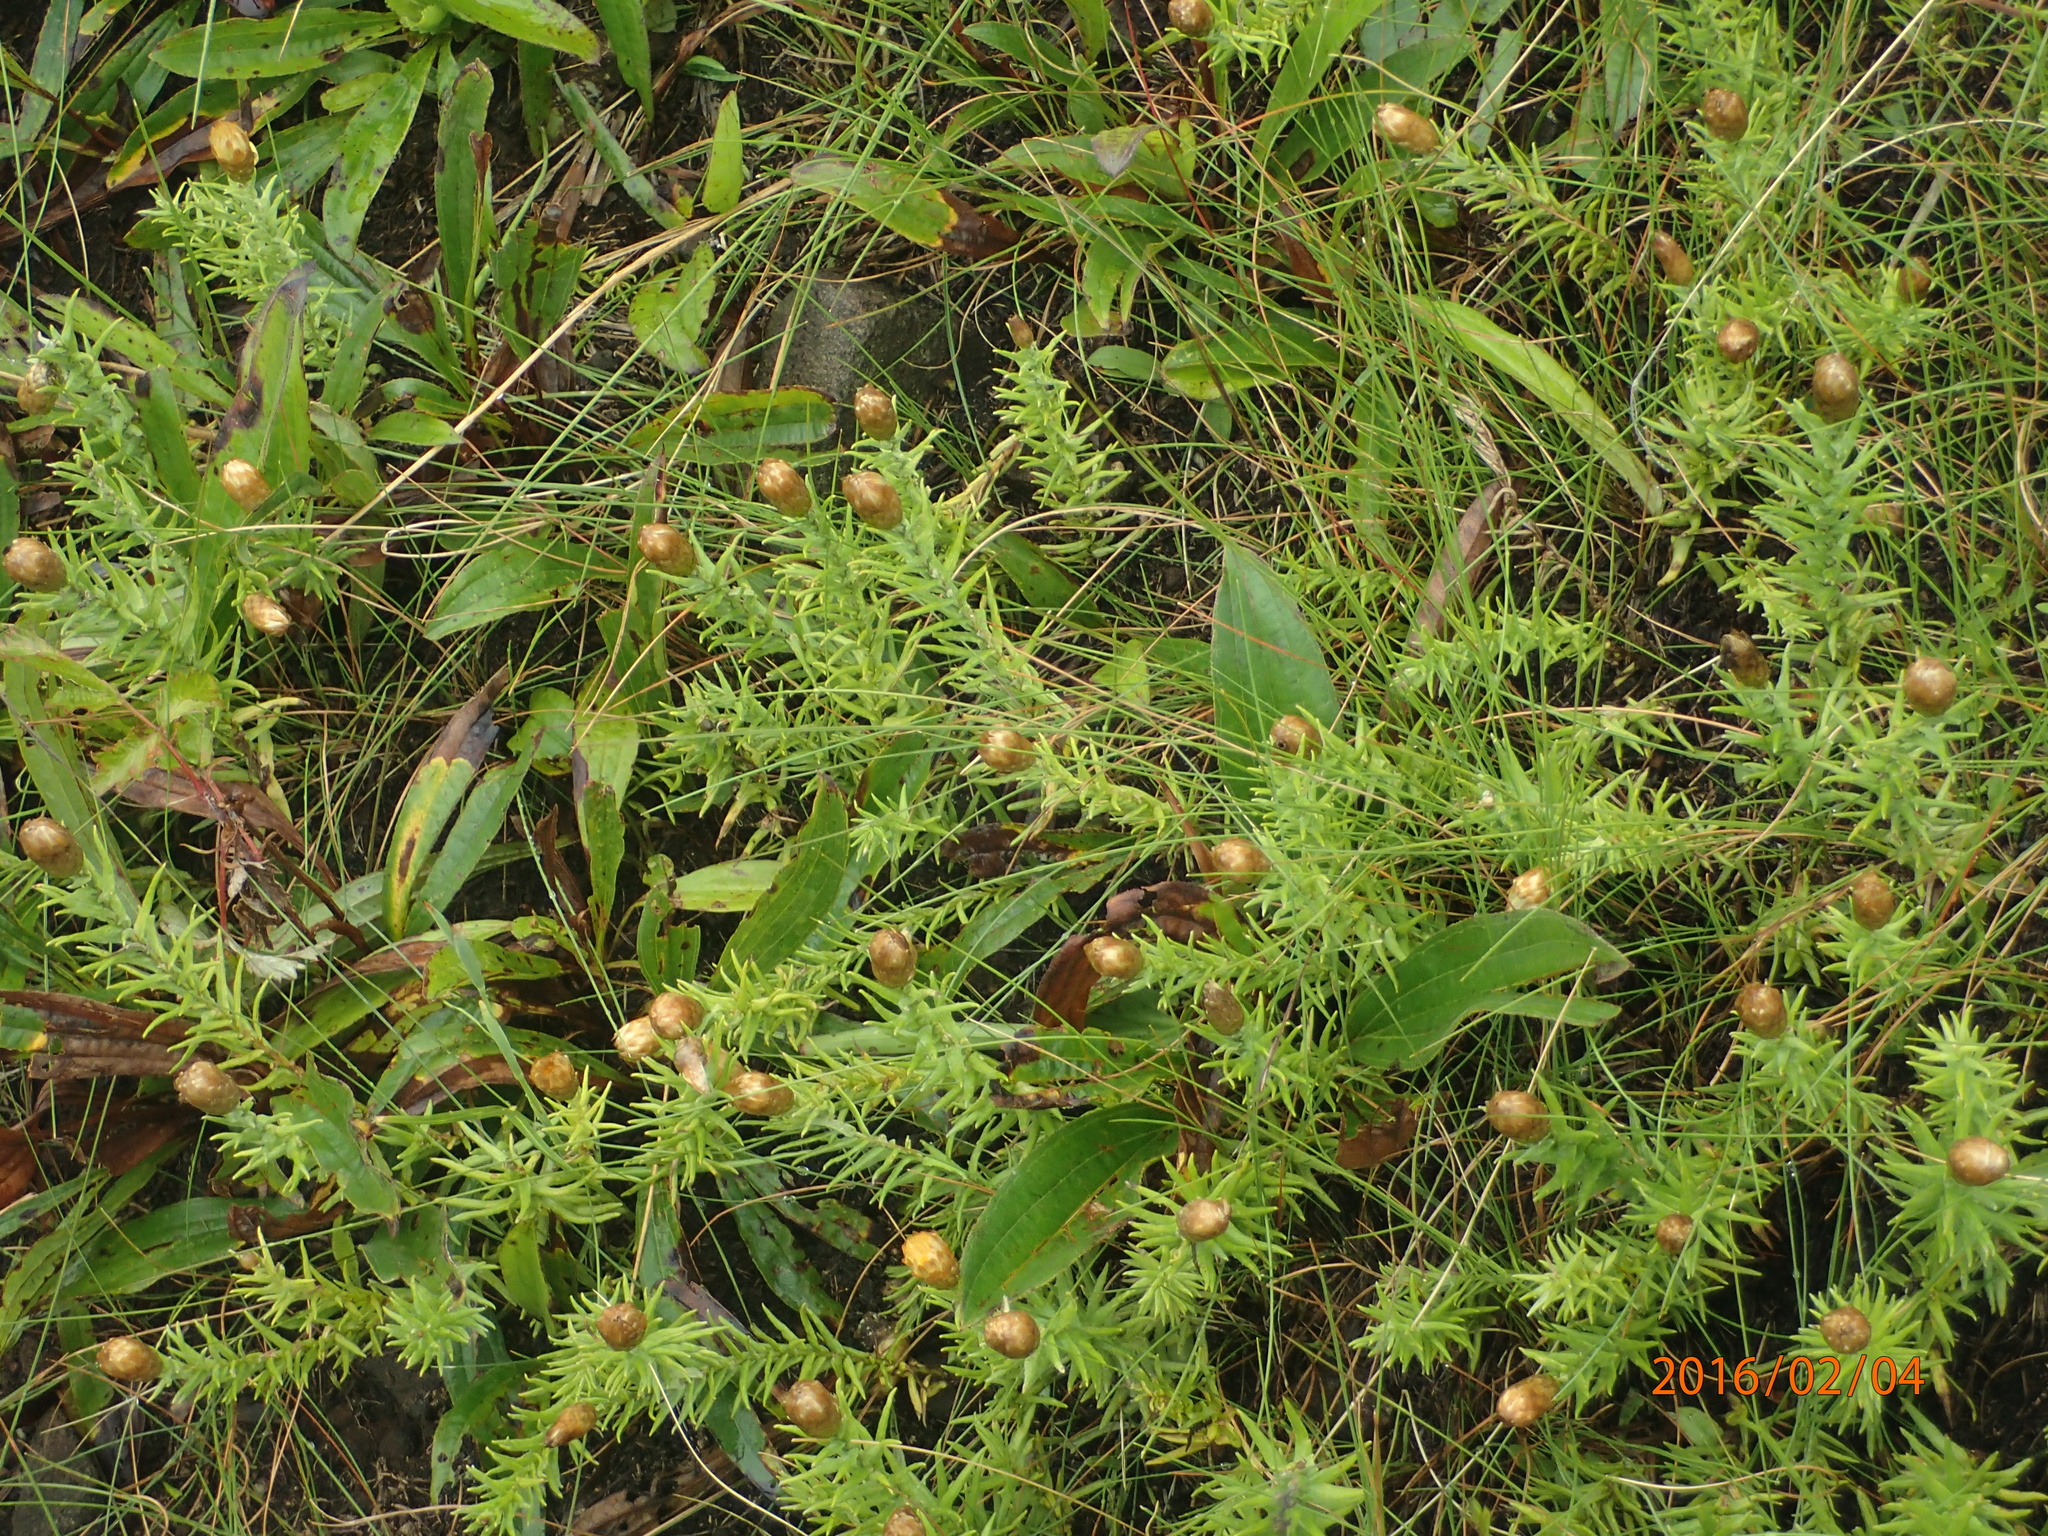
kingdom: Plantae
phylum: Tracheophyta
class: Magnoliopsida
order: Asterales
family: Asteraceae
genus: Helichrysum
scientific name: Helichrysum herbaceum
